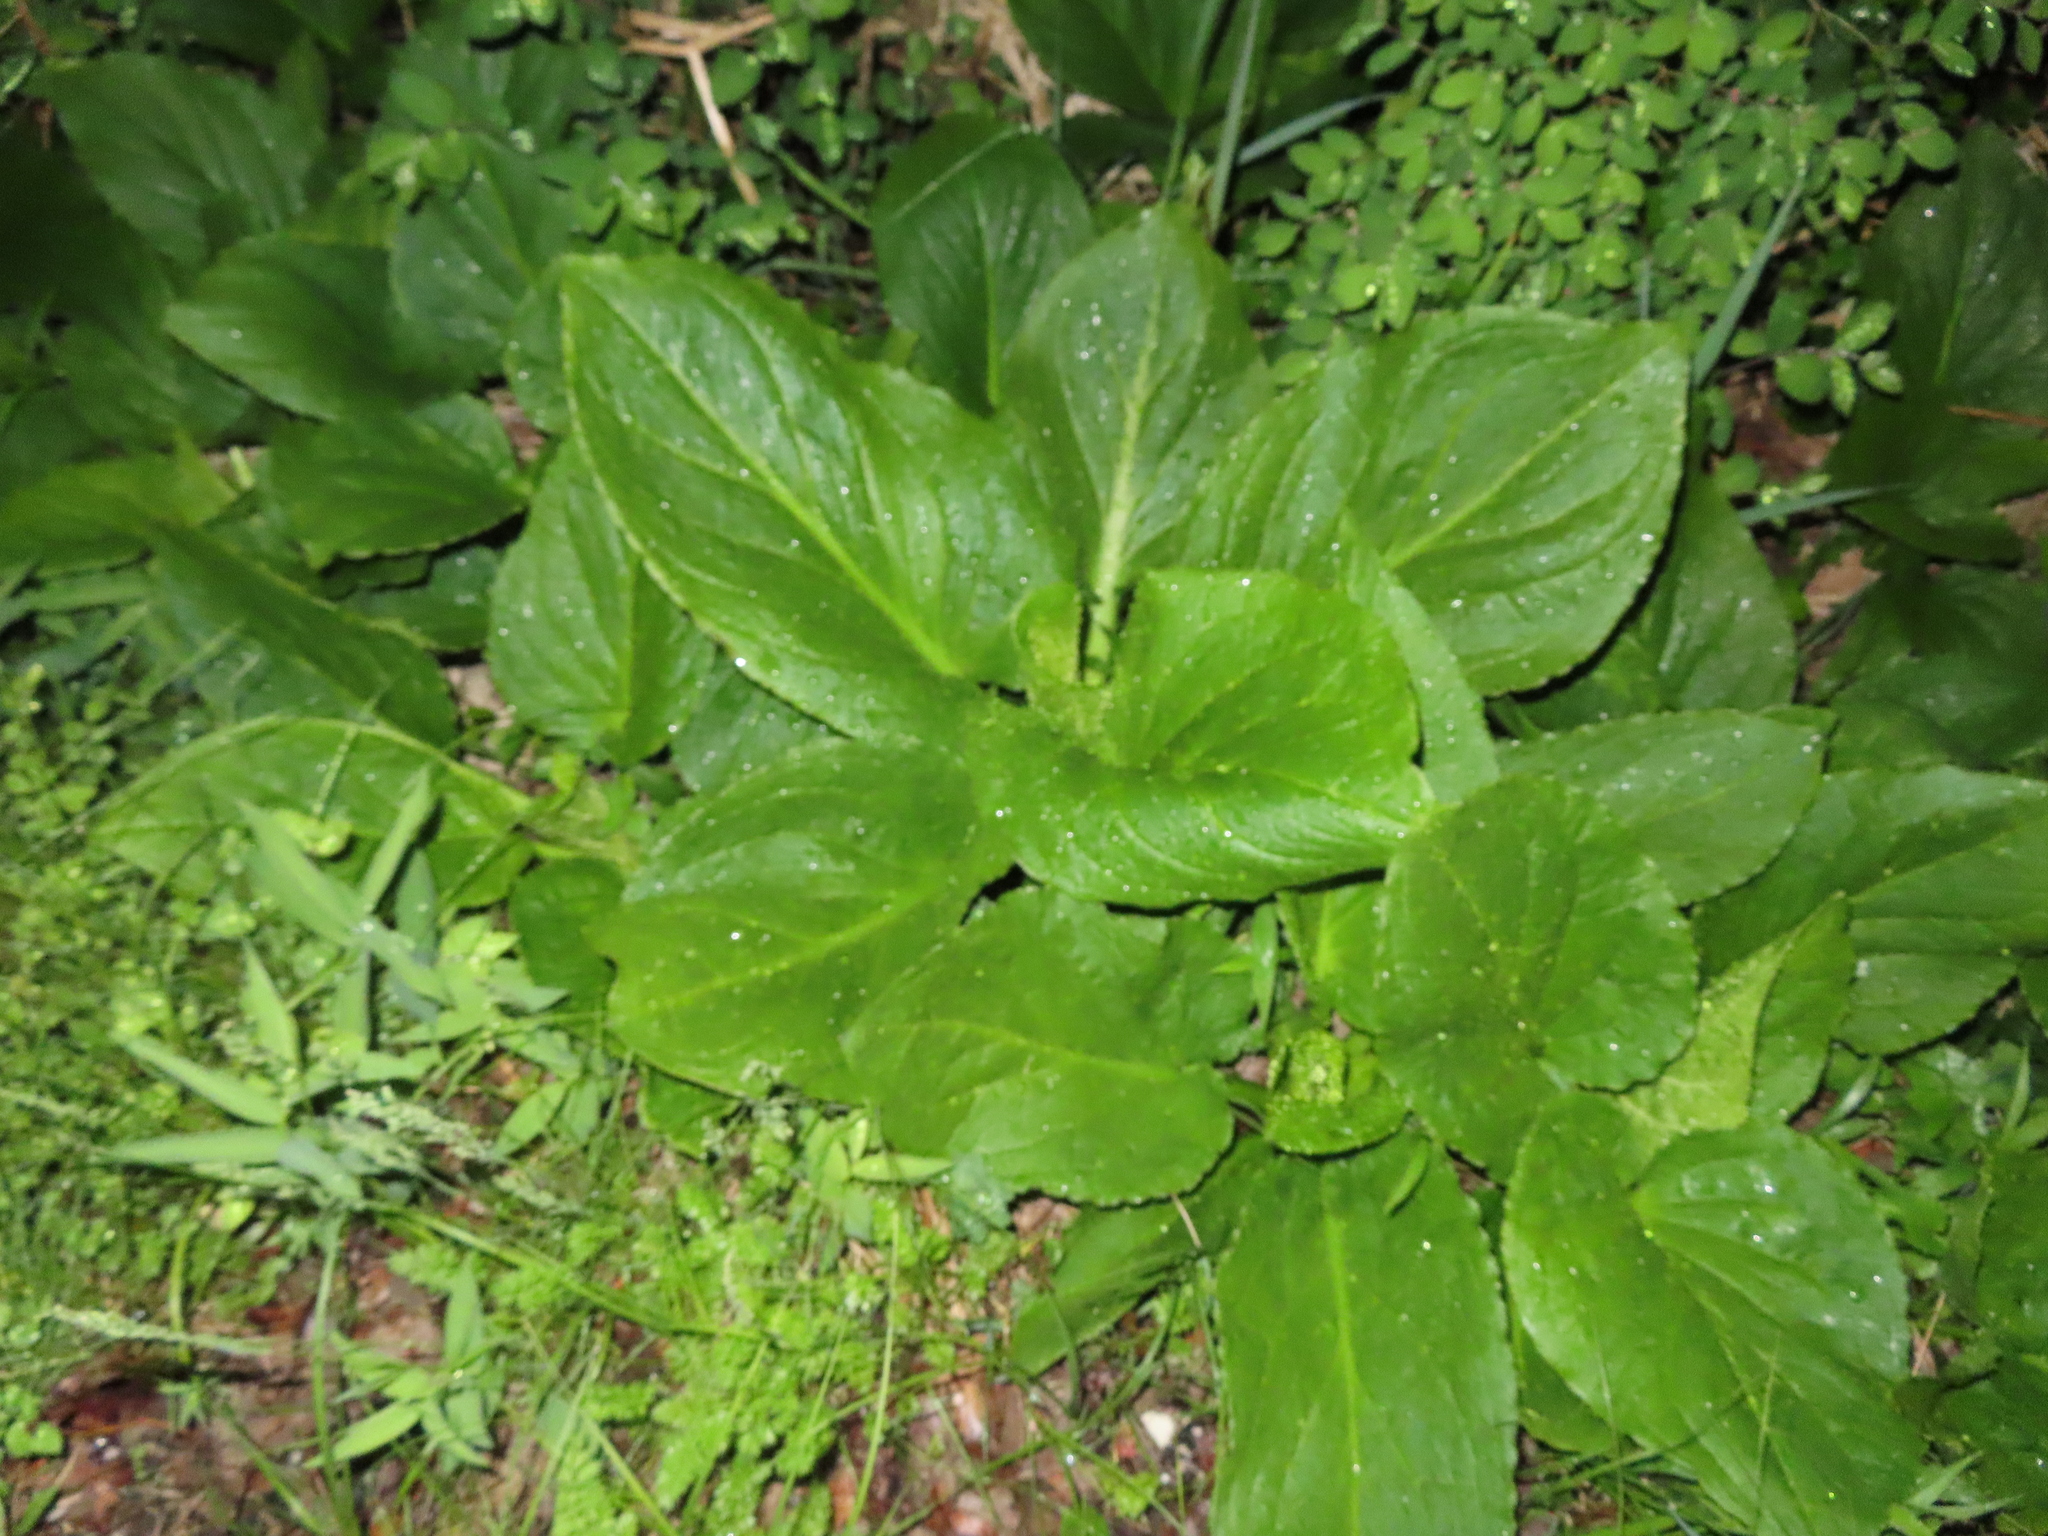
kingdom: Plantae
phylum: Tracheophyta
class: Liliopsida
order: Alismatales
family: Araceae
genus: Symplocarpus
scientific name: Symplocarpus foetidus
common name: Eastern skunk cabbage
